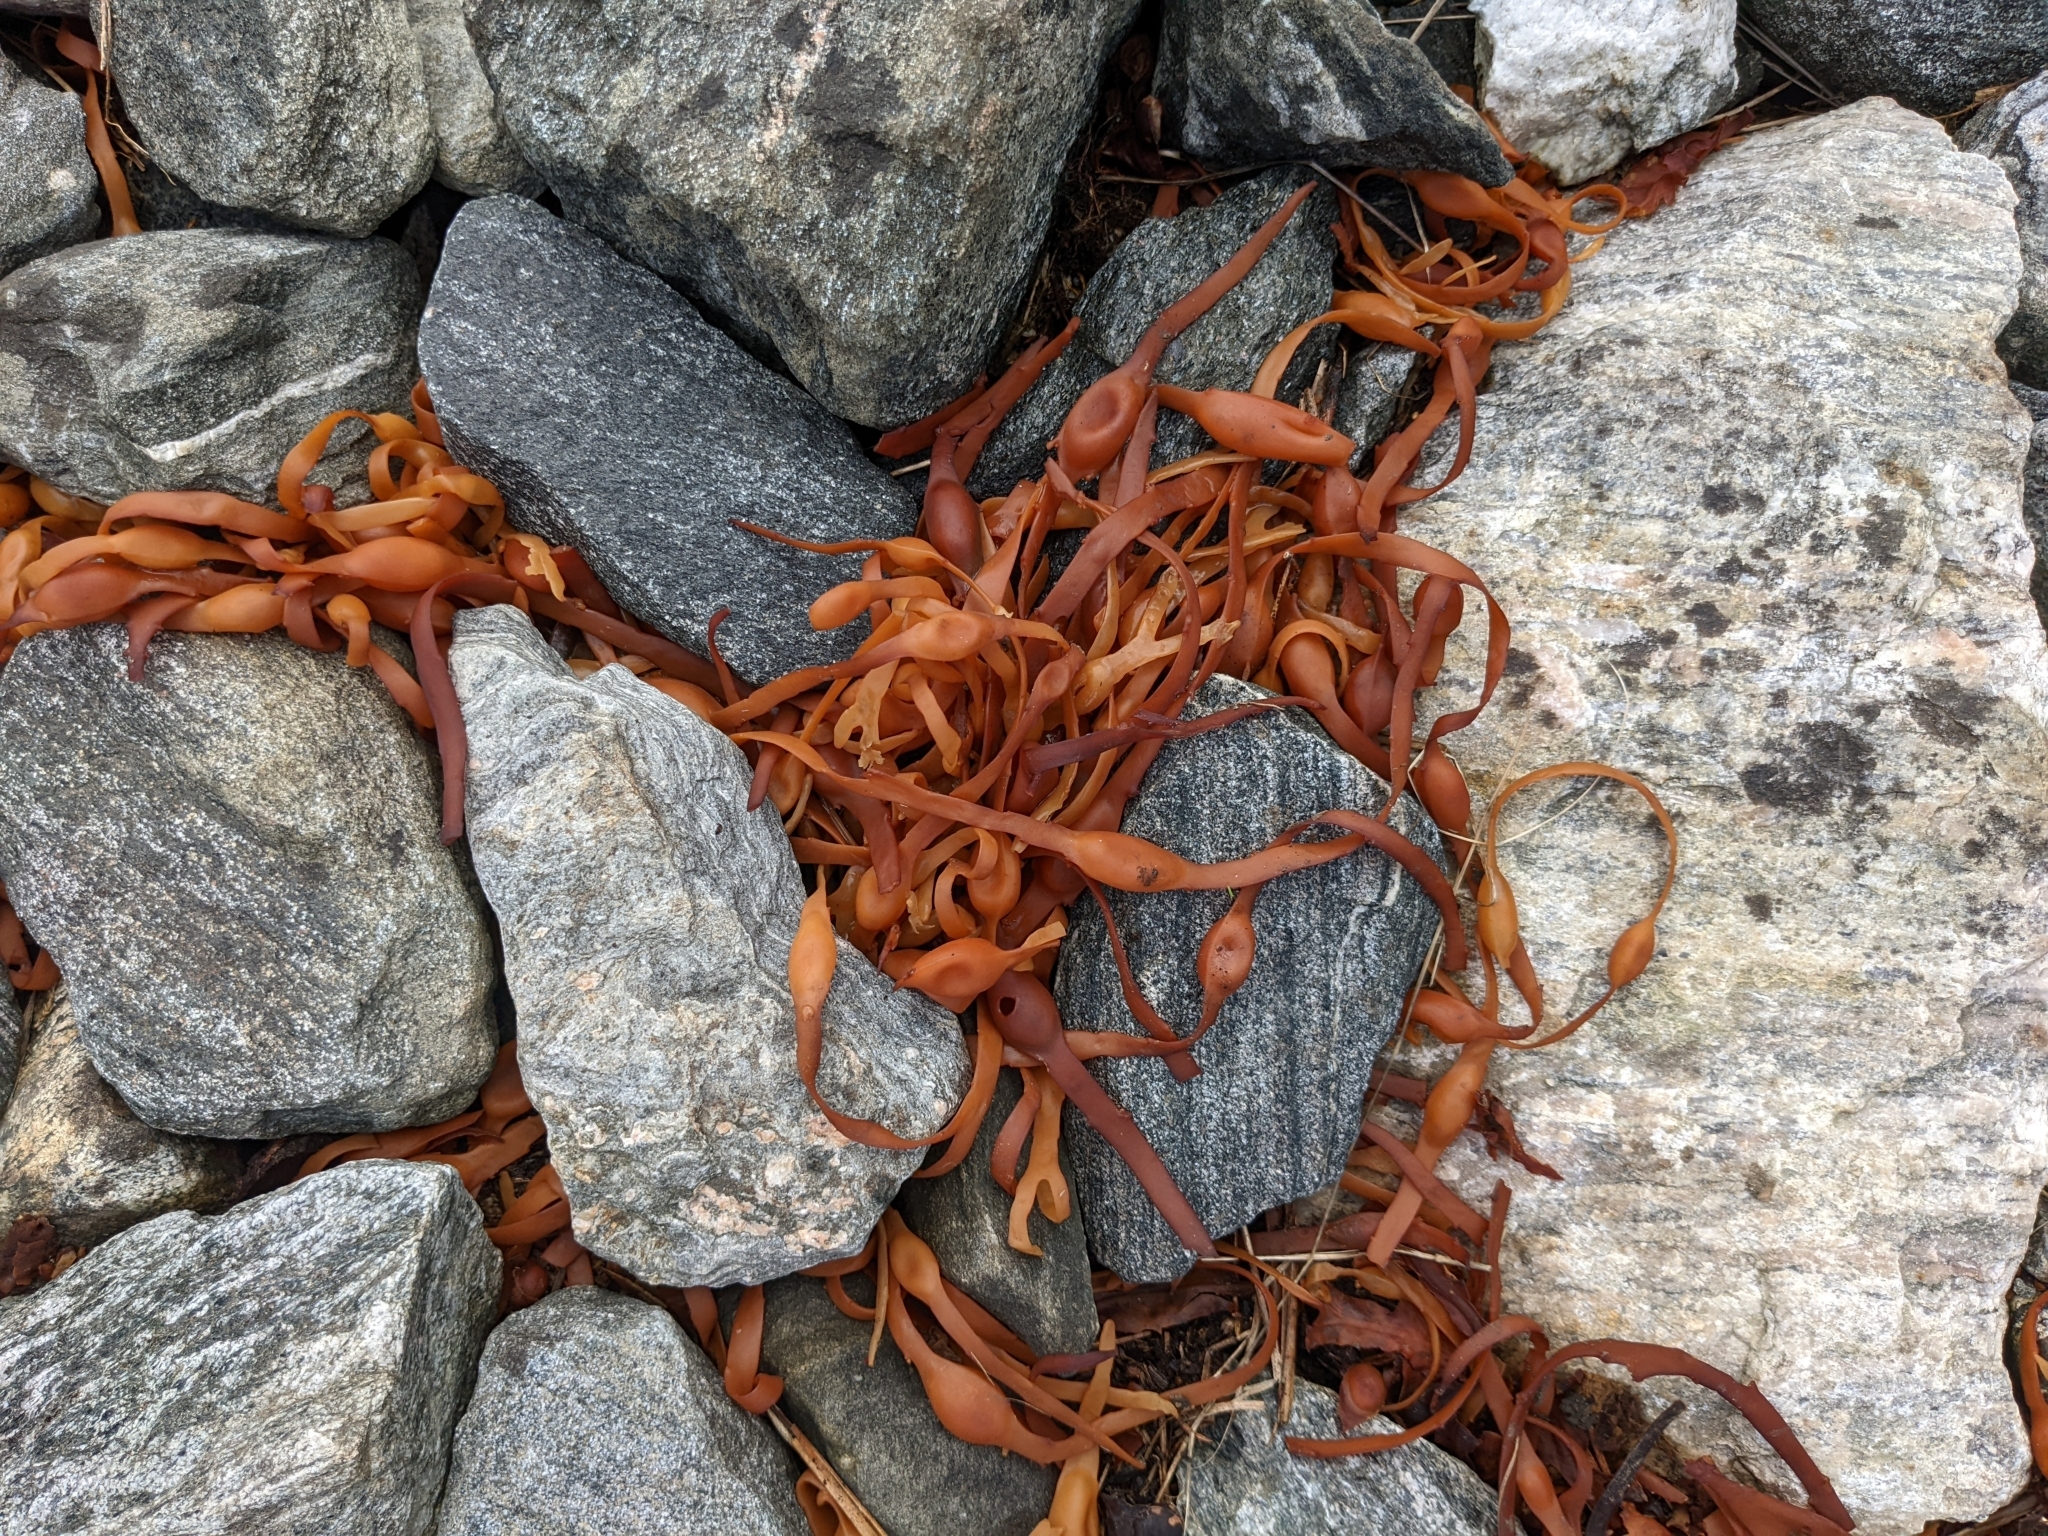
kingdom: Chromista
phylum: Ochrophyta
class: Phaeophyceae
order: Fucales
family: Fucaceae
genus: Ascophyllum
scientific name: Ascophyllum nodosum
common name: Knotted wrack
